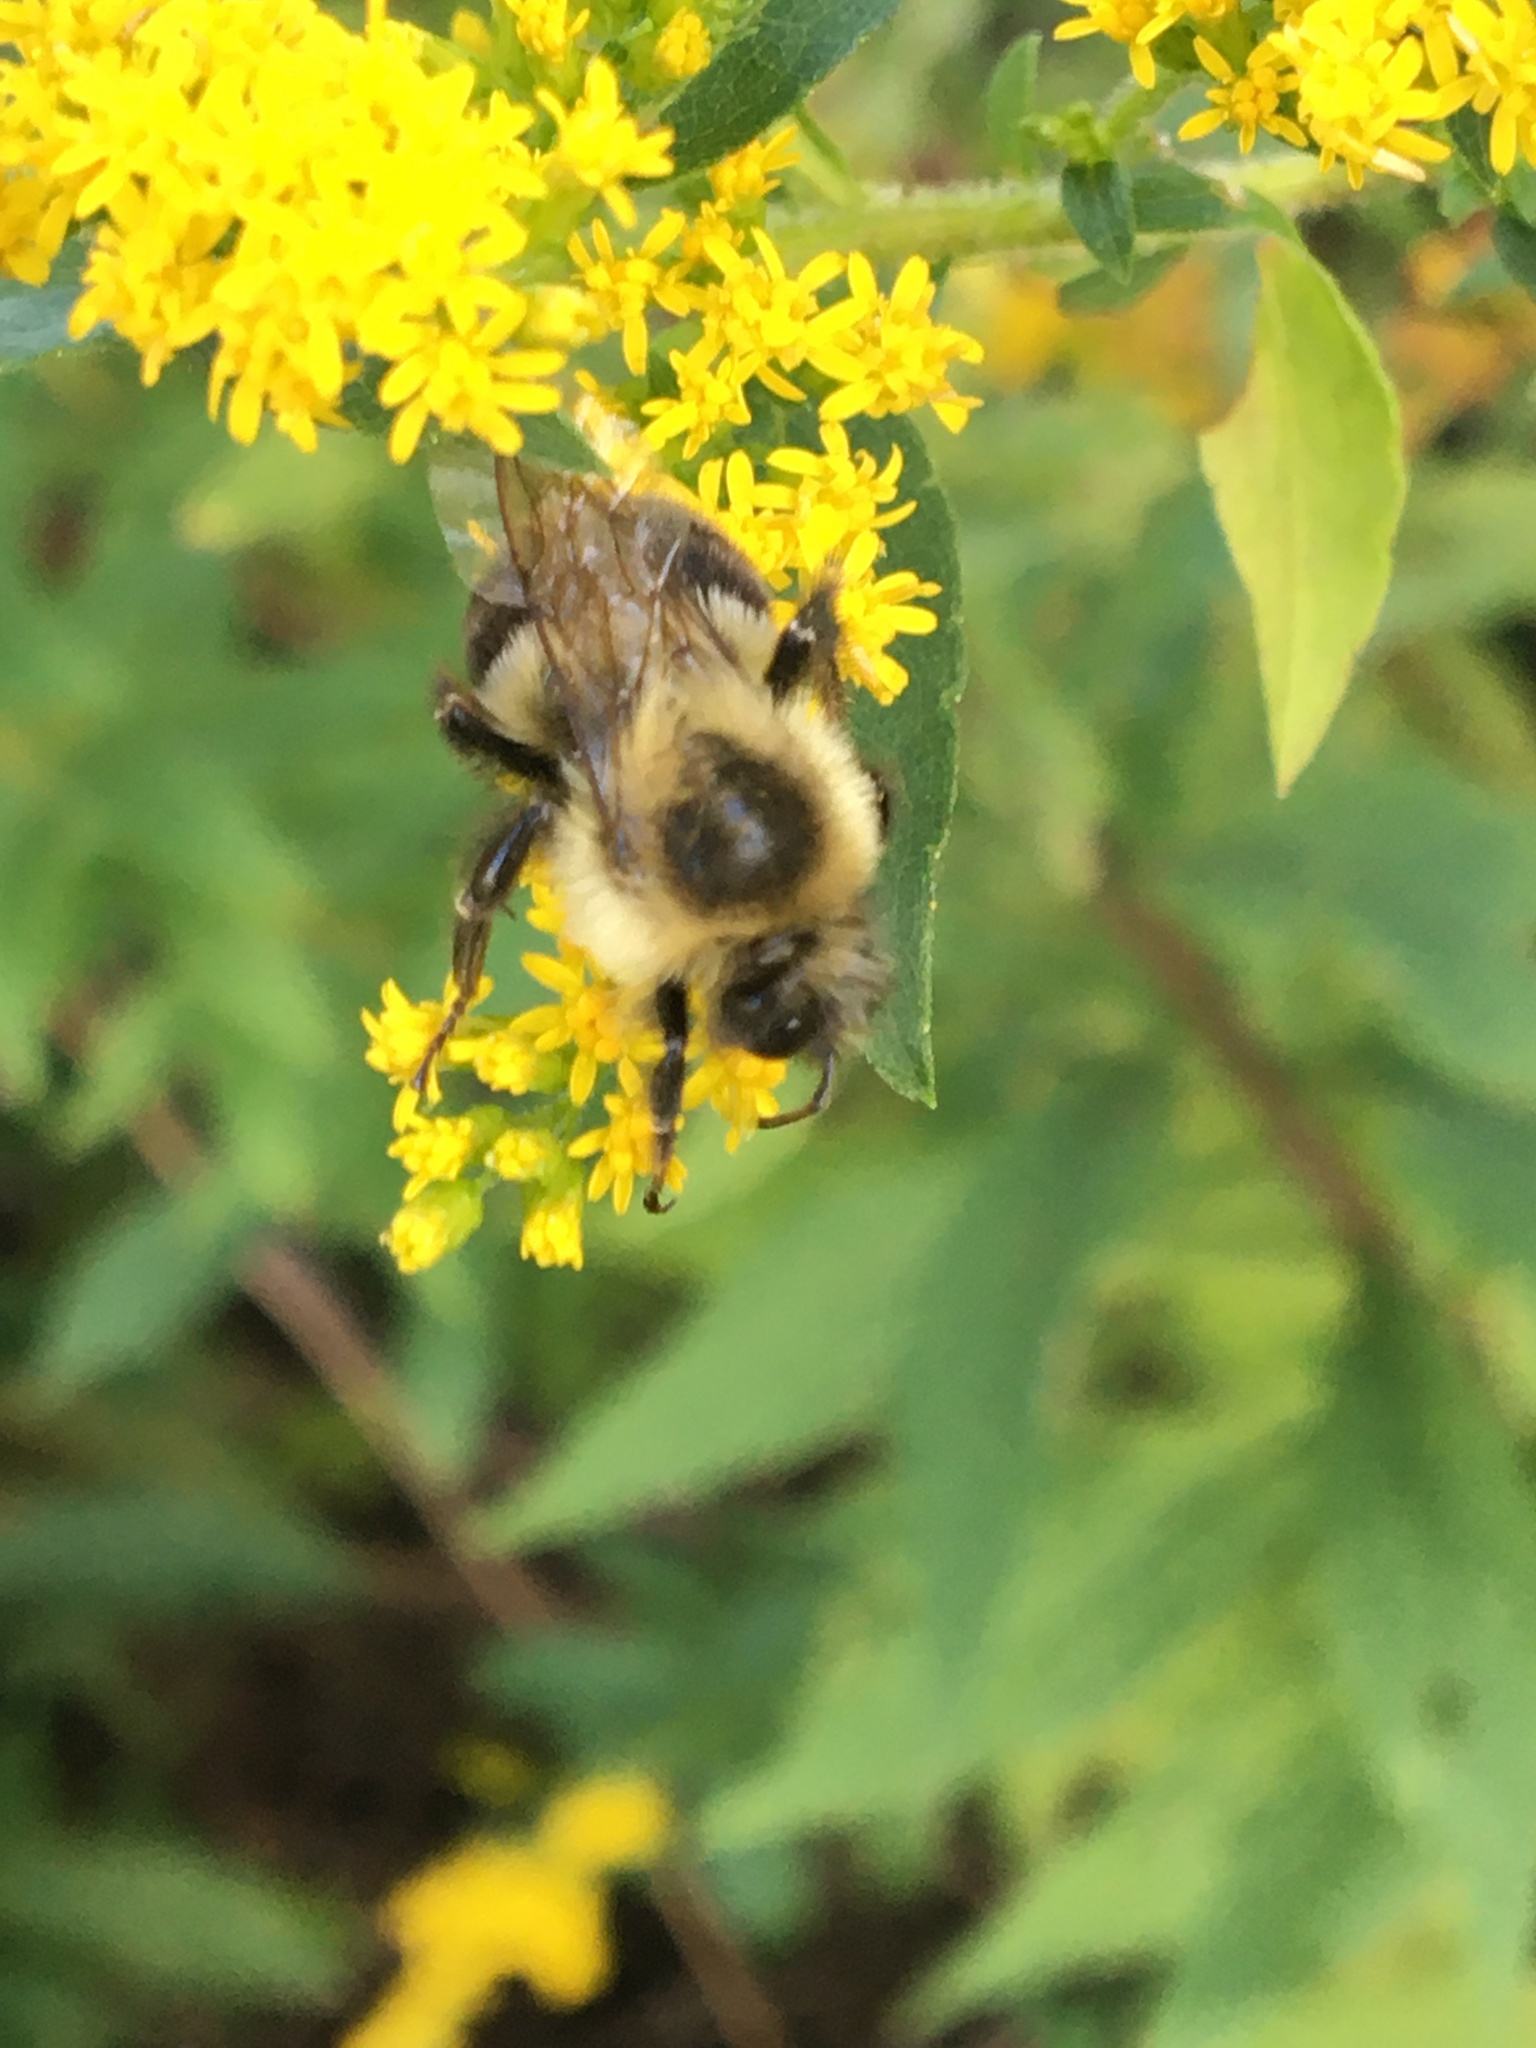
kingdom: Animalia
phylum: Arthropoda
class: Insecta
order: Hymenoptera
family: Apidae
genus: Bombus
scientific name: Bombus impatiens
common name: Common eastern bumble bee
